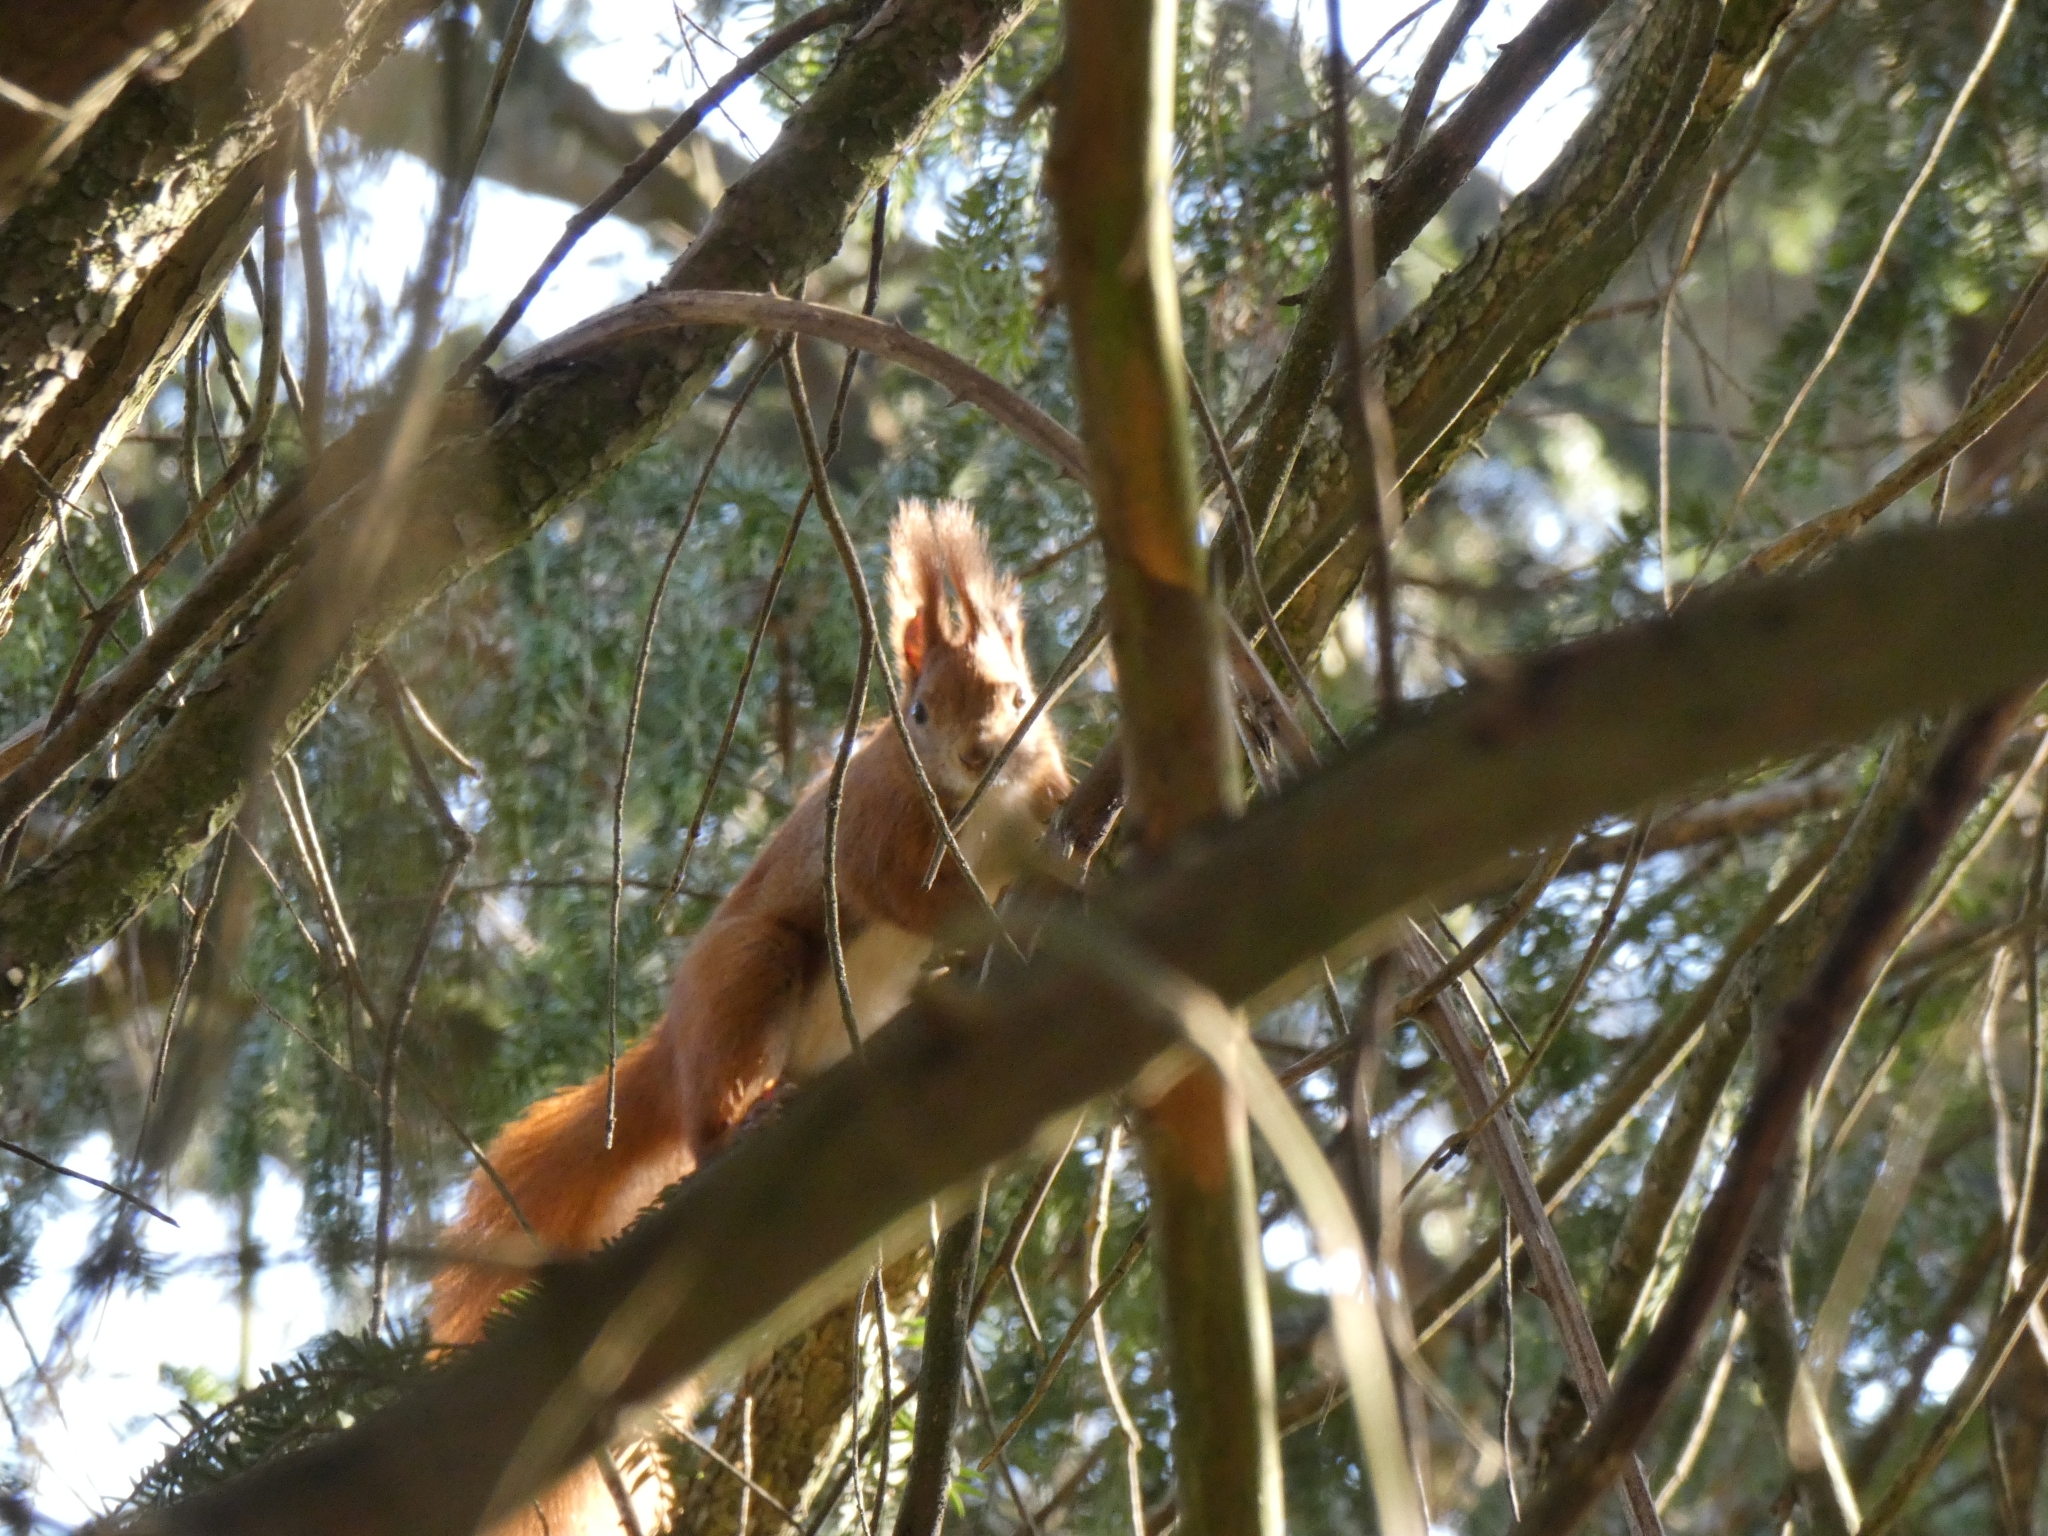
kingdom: Animalia
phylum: Chordata
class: Mammalia
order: Rodentia
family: Sciuridae
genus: Sciurus
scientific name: Sciurus vulgaris
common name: Eurasian red squirrel
